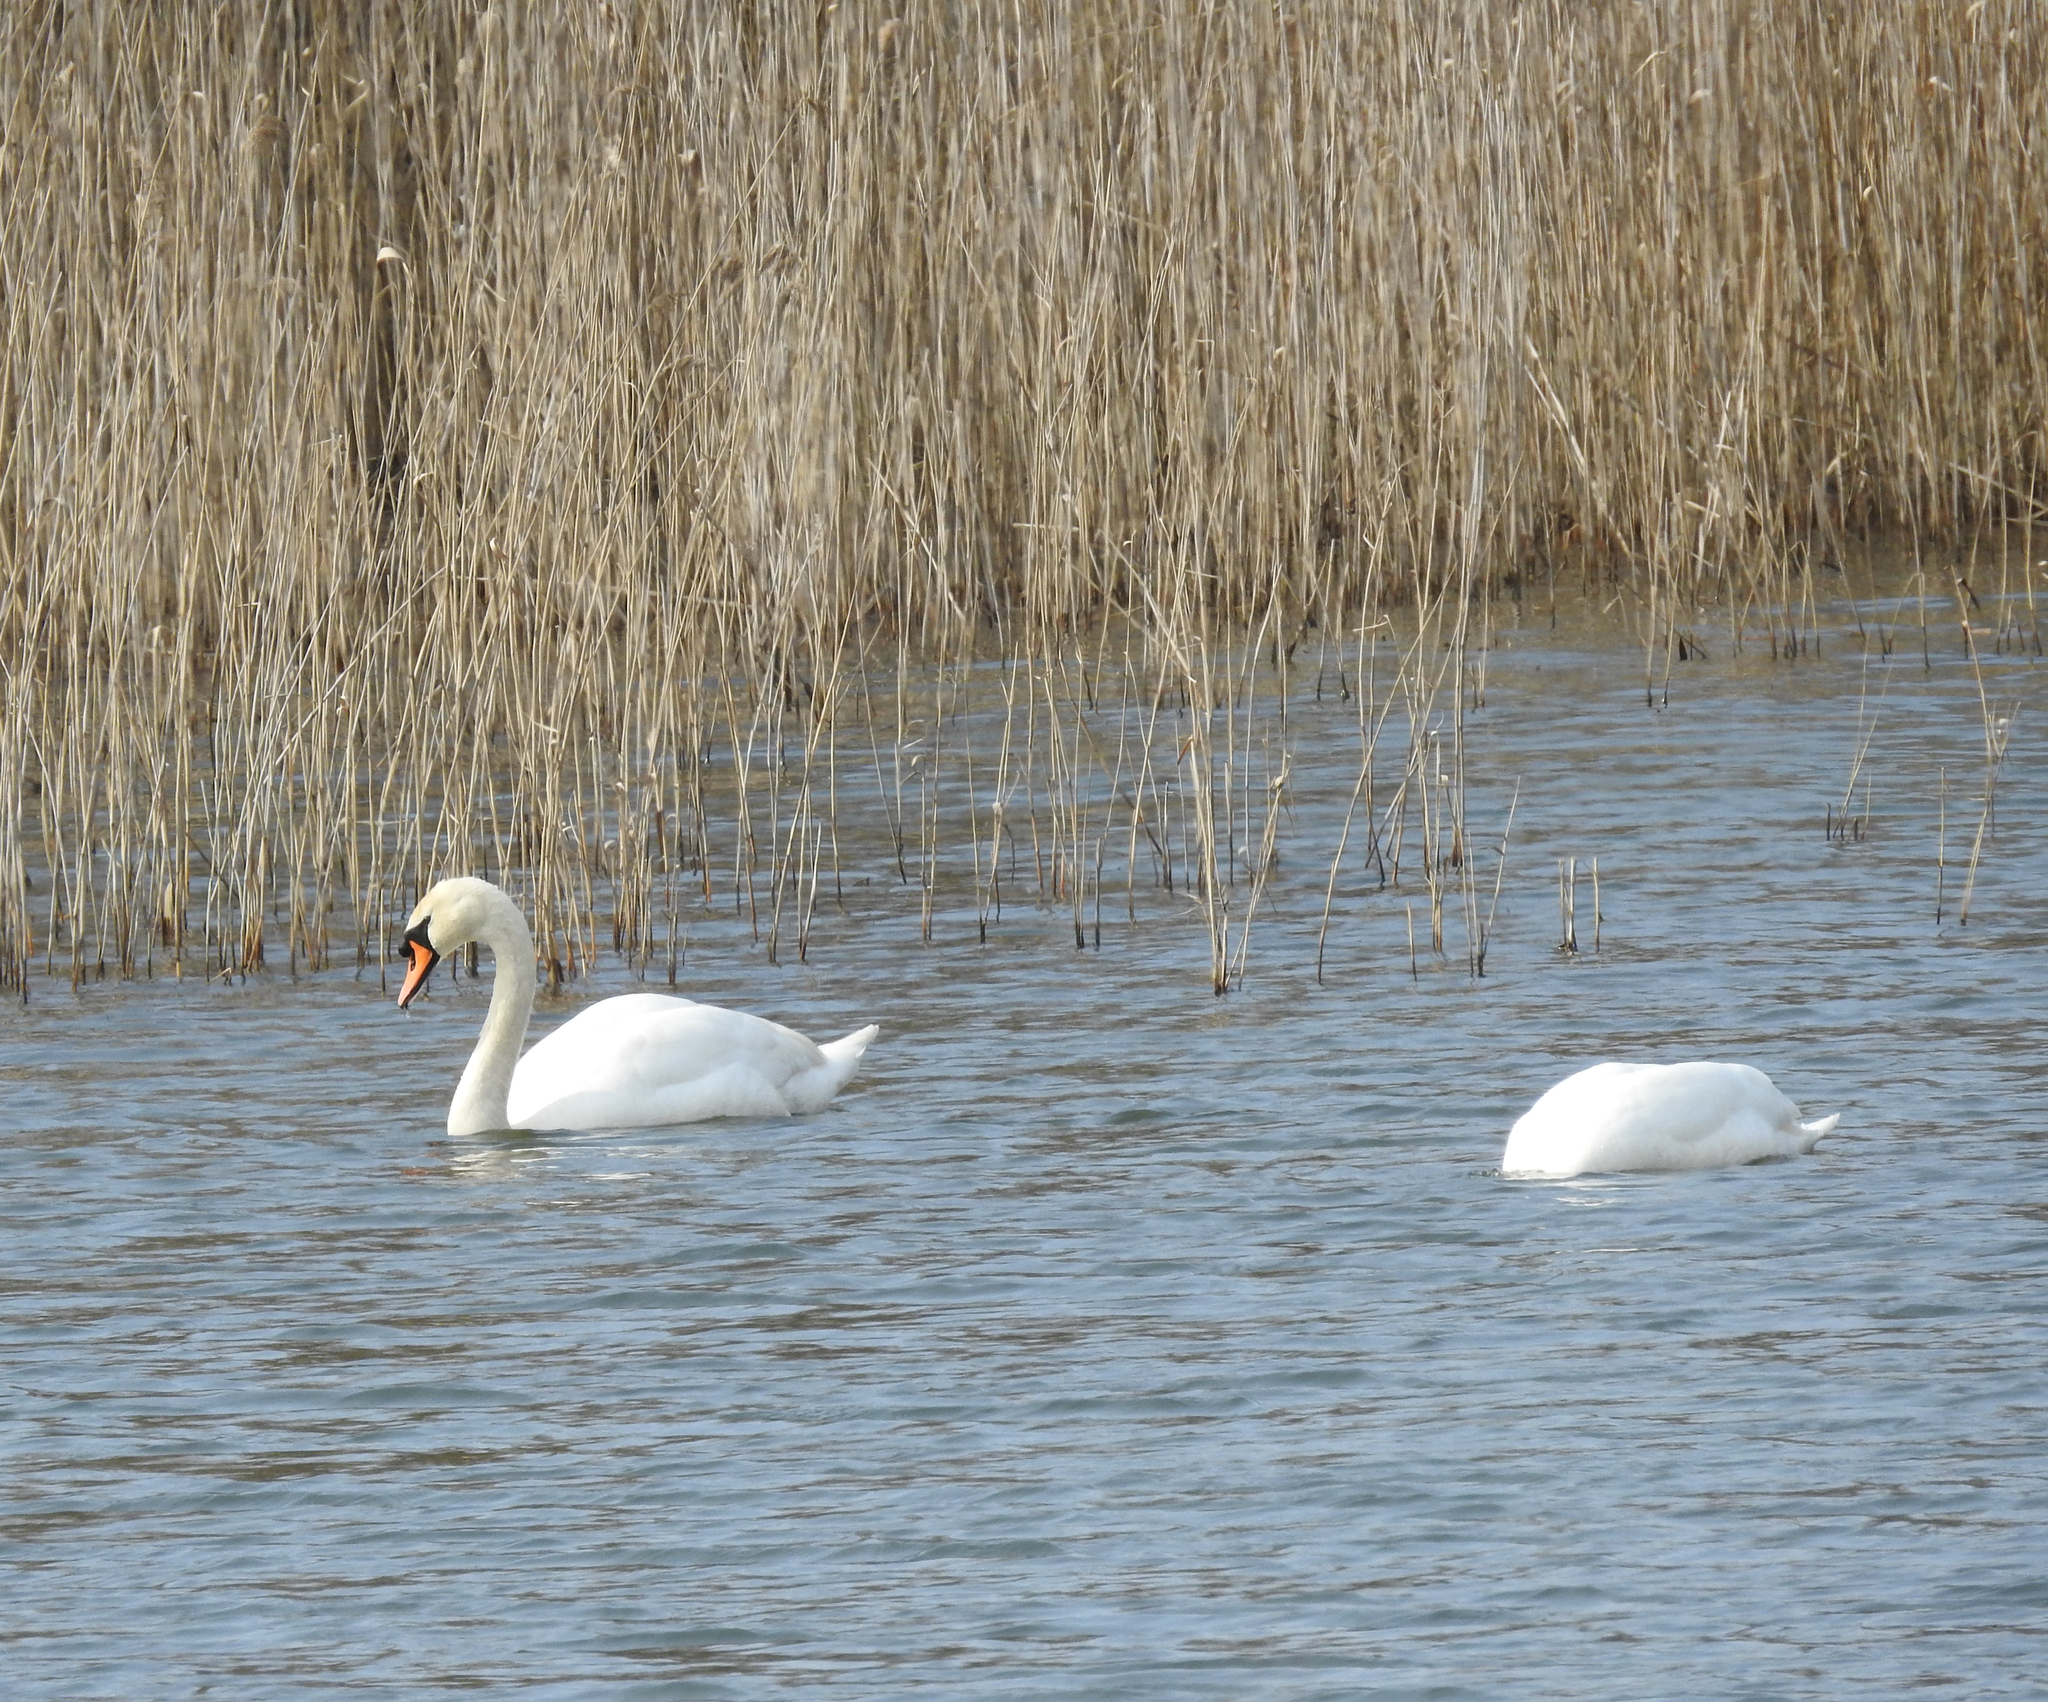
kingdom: Animalia
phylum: Chordata
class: Aves
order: Anseriformes
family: Anatidae
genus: Cygnus
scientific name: Cygnus olor
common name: Mute swan
